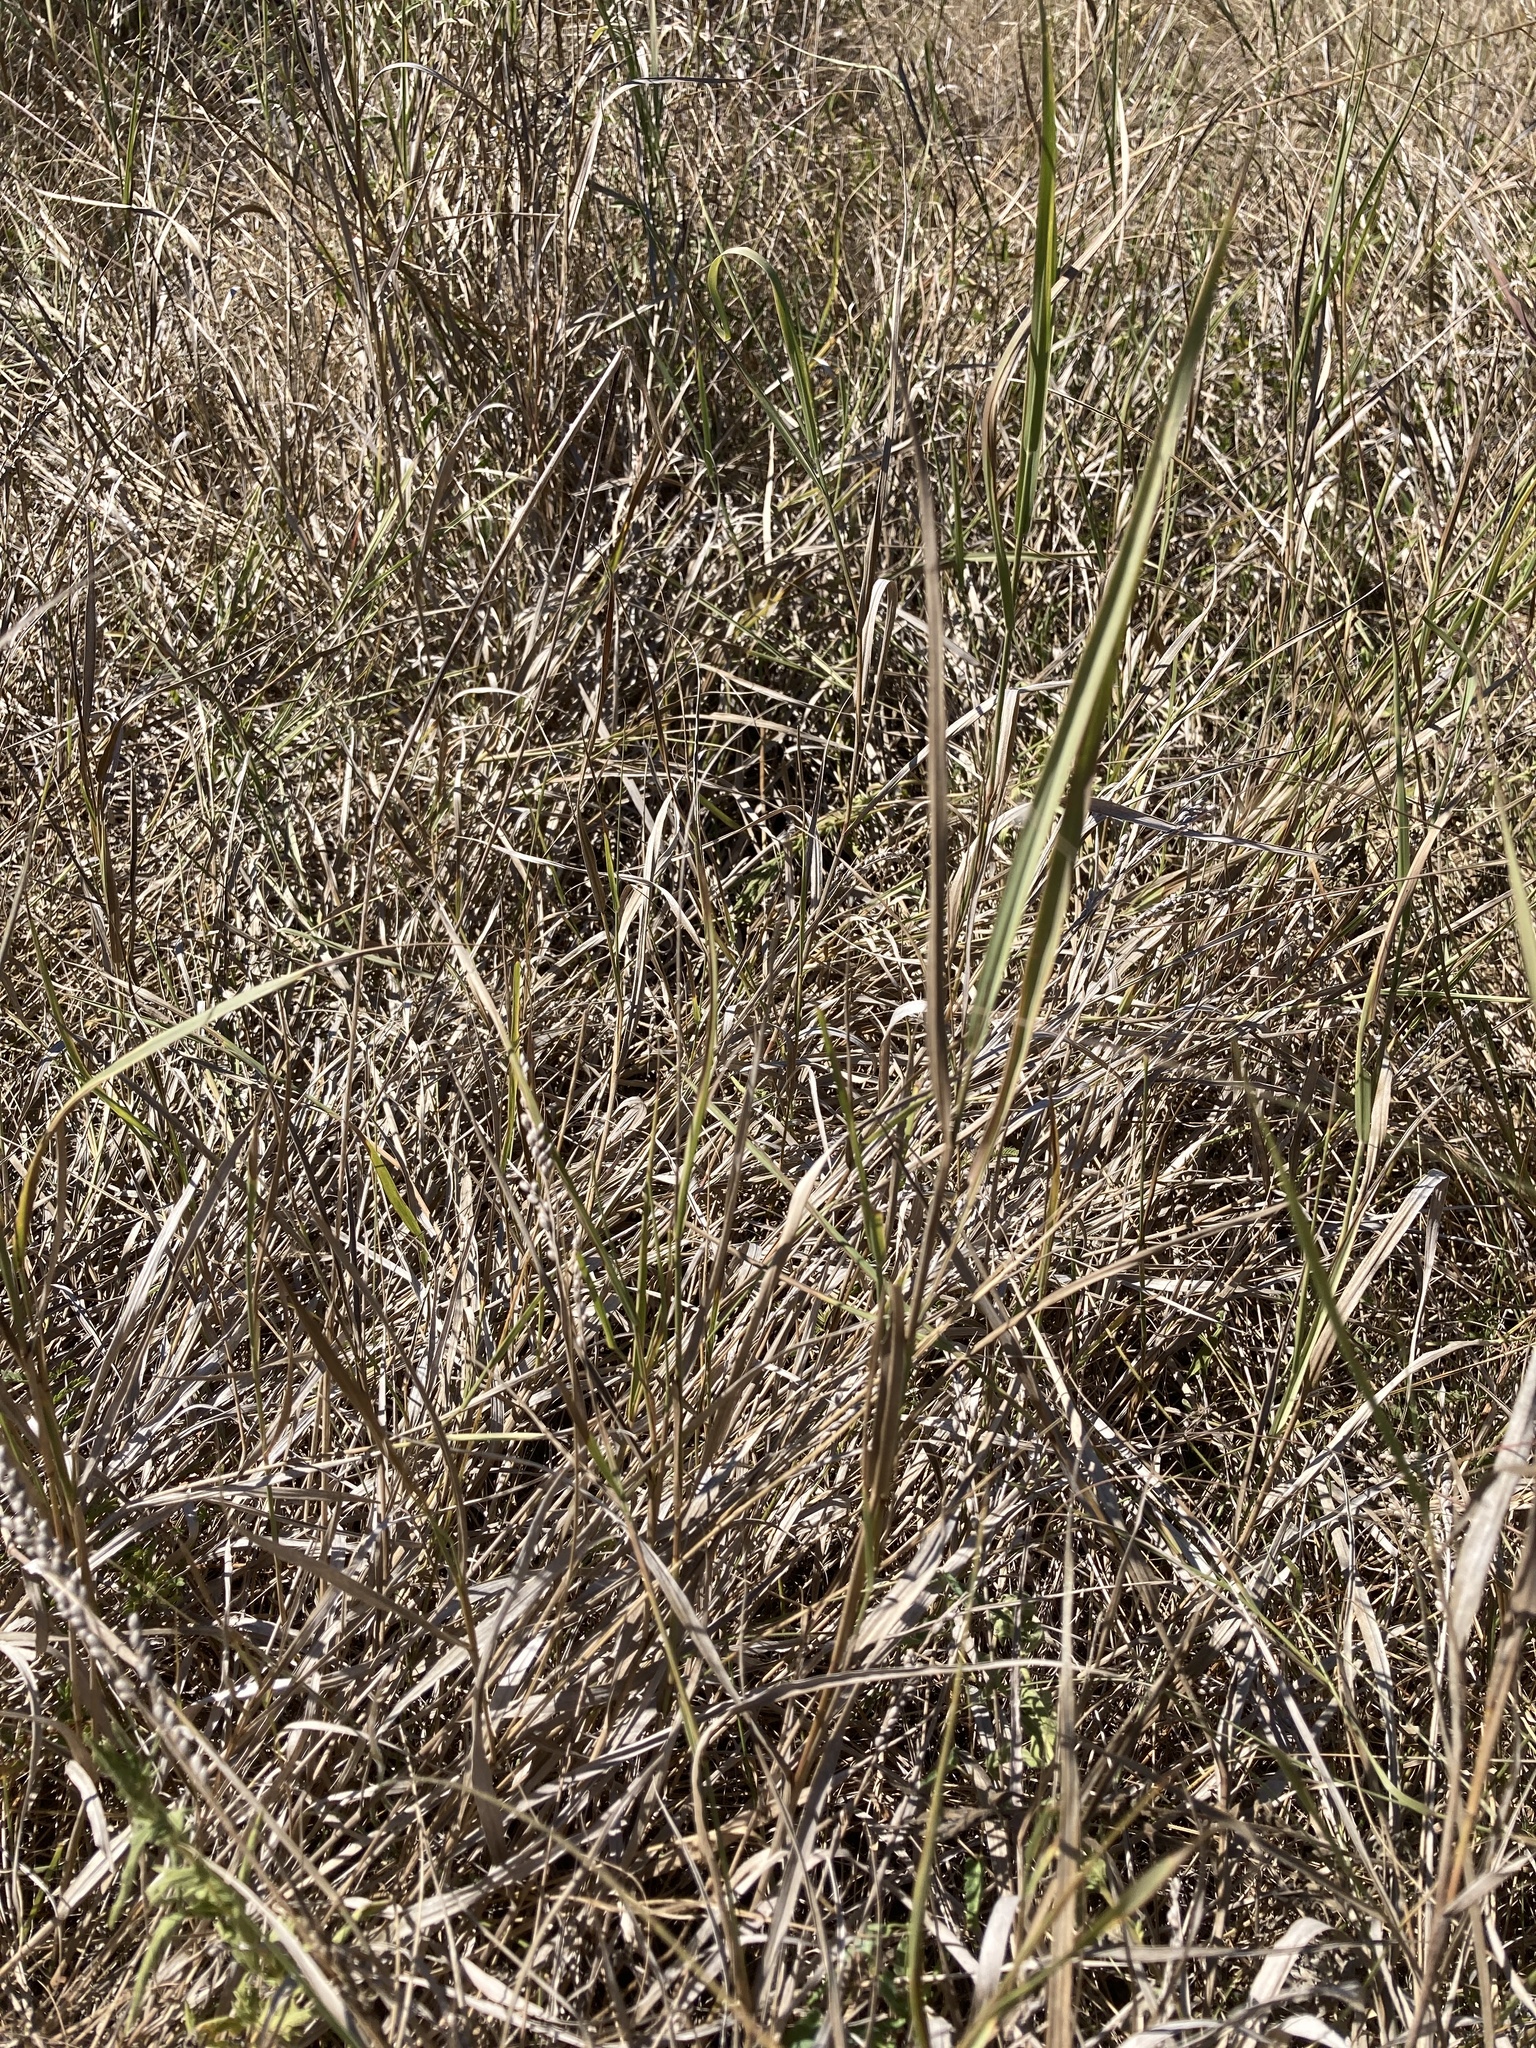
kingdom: Plantae
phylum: Tracheophyta
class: Liliopsida
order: Poales
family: Poaceae
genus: Hopia
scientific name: Hopia obtusa
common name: Vine-mesquite
